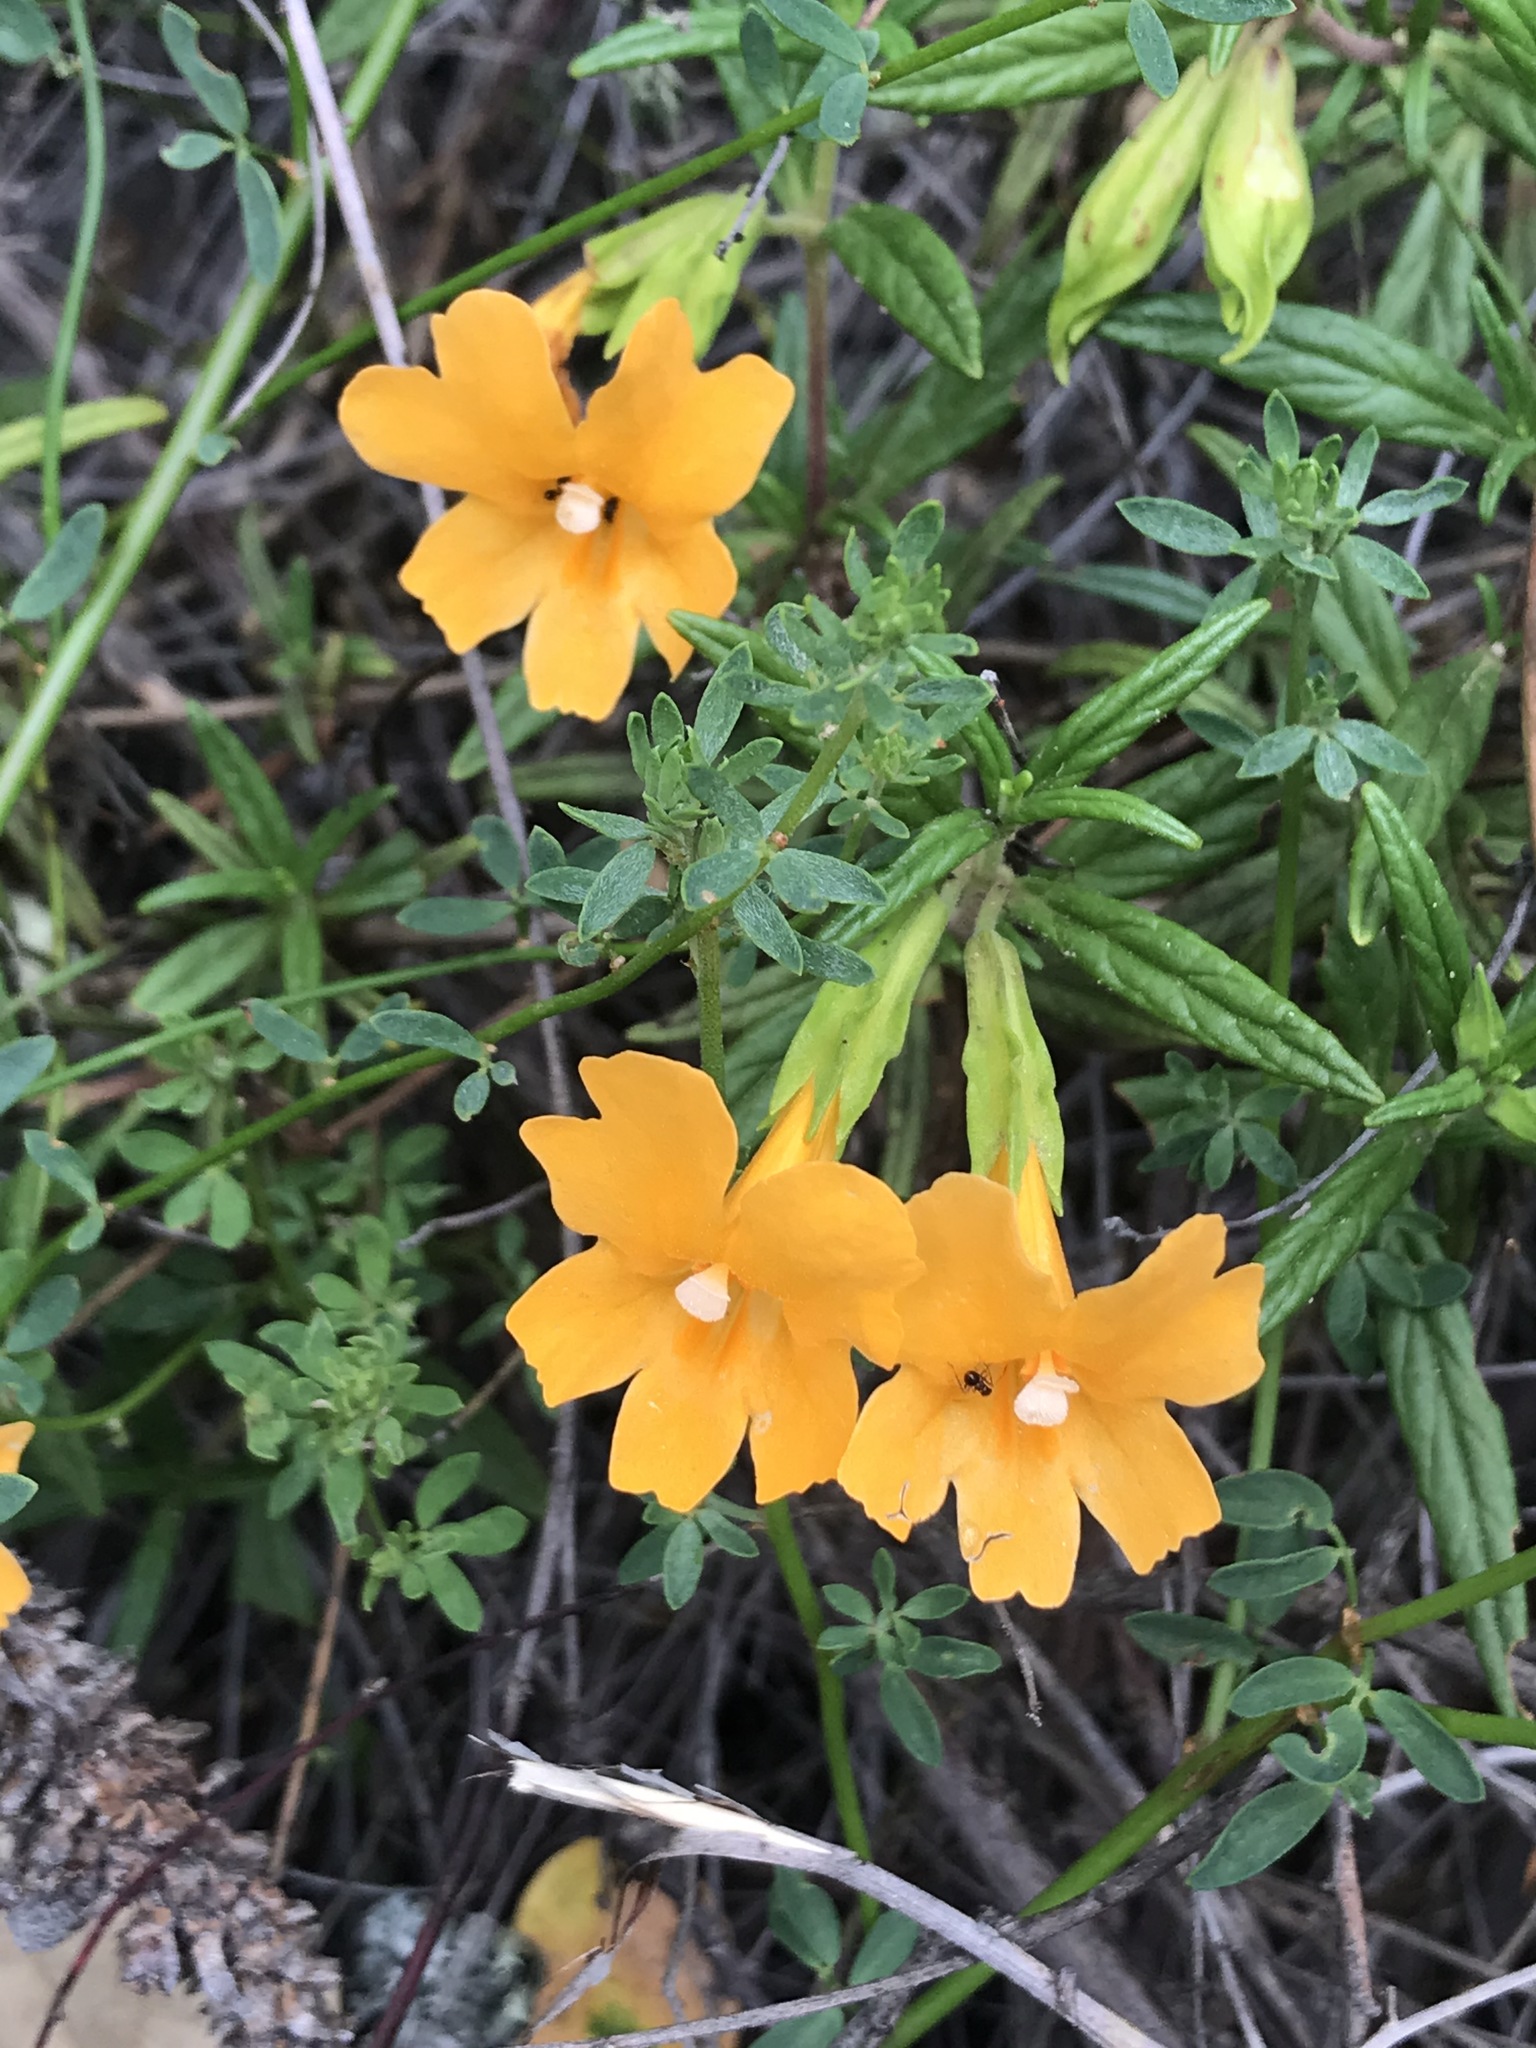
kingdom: Plantae
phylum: Tracheophyta
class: Magnoliopsida
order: Lamiales
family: Phrymaceae
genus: Diplacus
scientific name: Diplacus aurantiacus
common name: Bush monkey-flower
